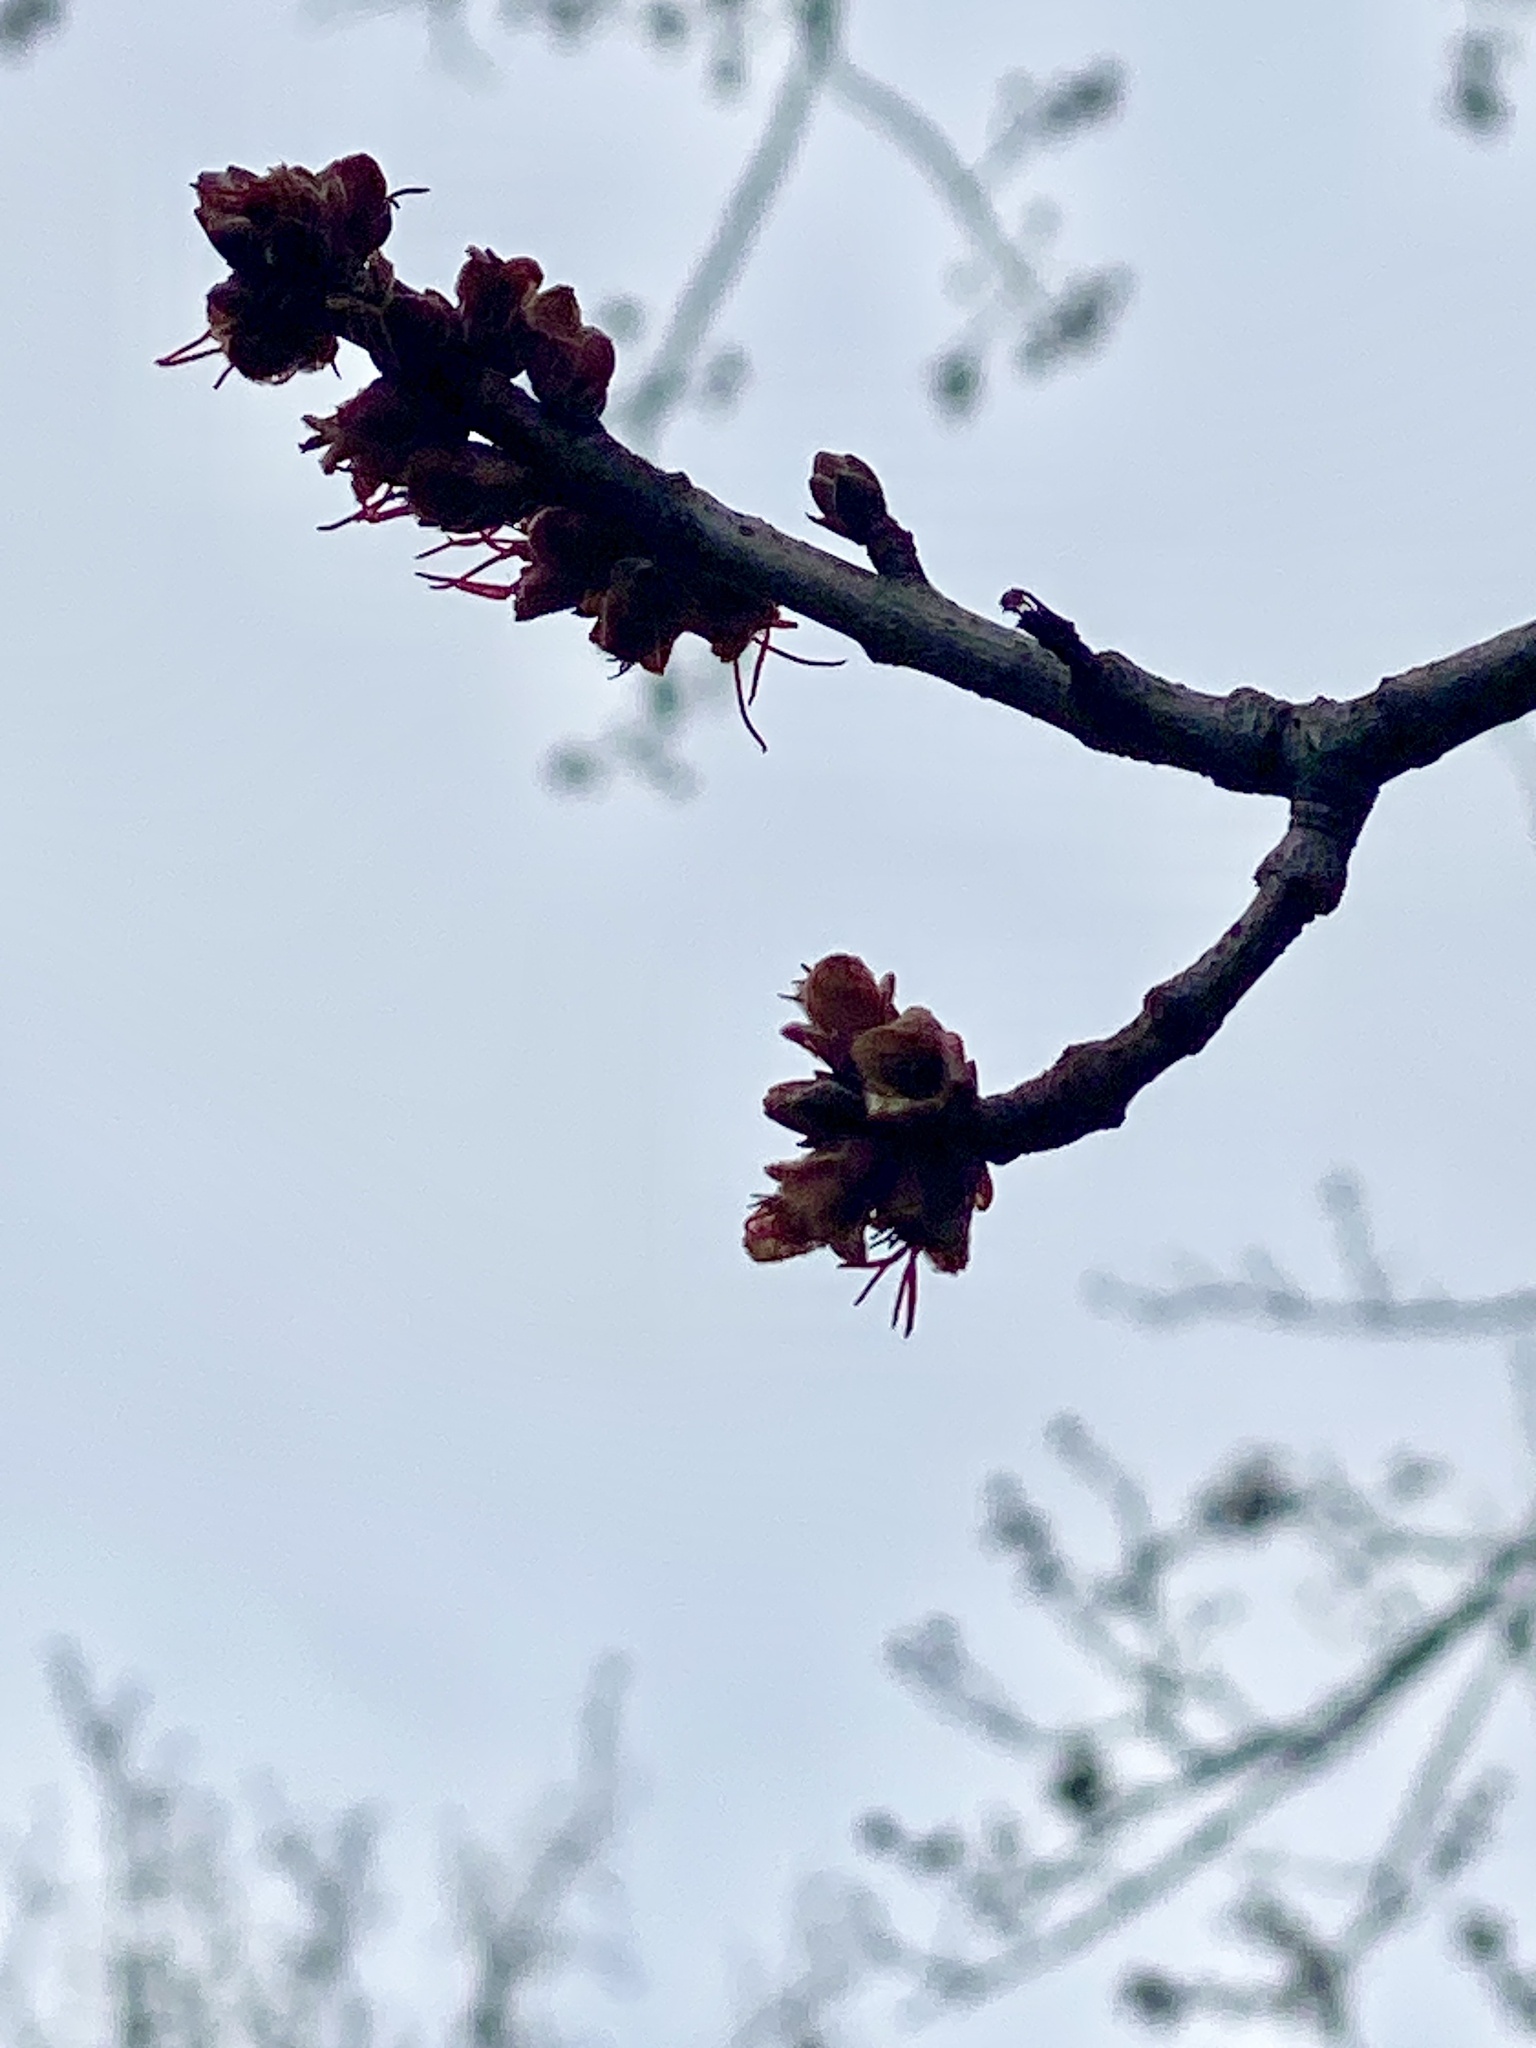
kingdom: Plantae
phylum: Tracheophyta
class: Magnoliopsida
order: Sapindales
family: Sapindaceae
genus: Acer
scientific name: Acer saccharinum
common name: Silver maple
